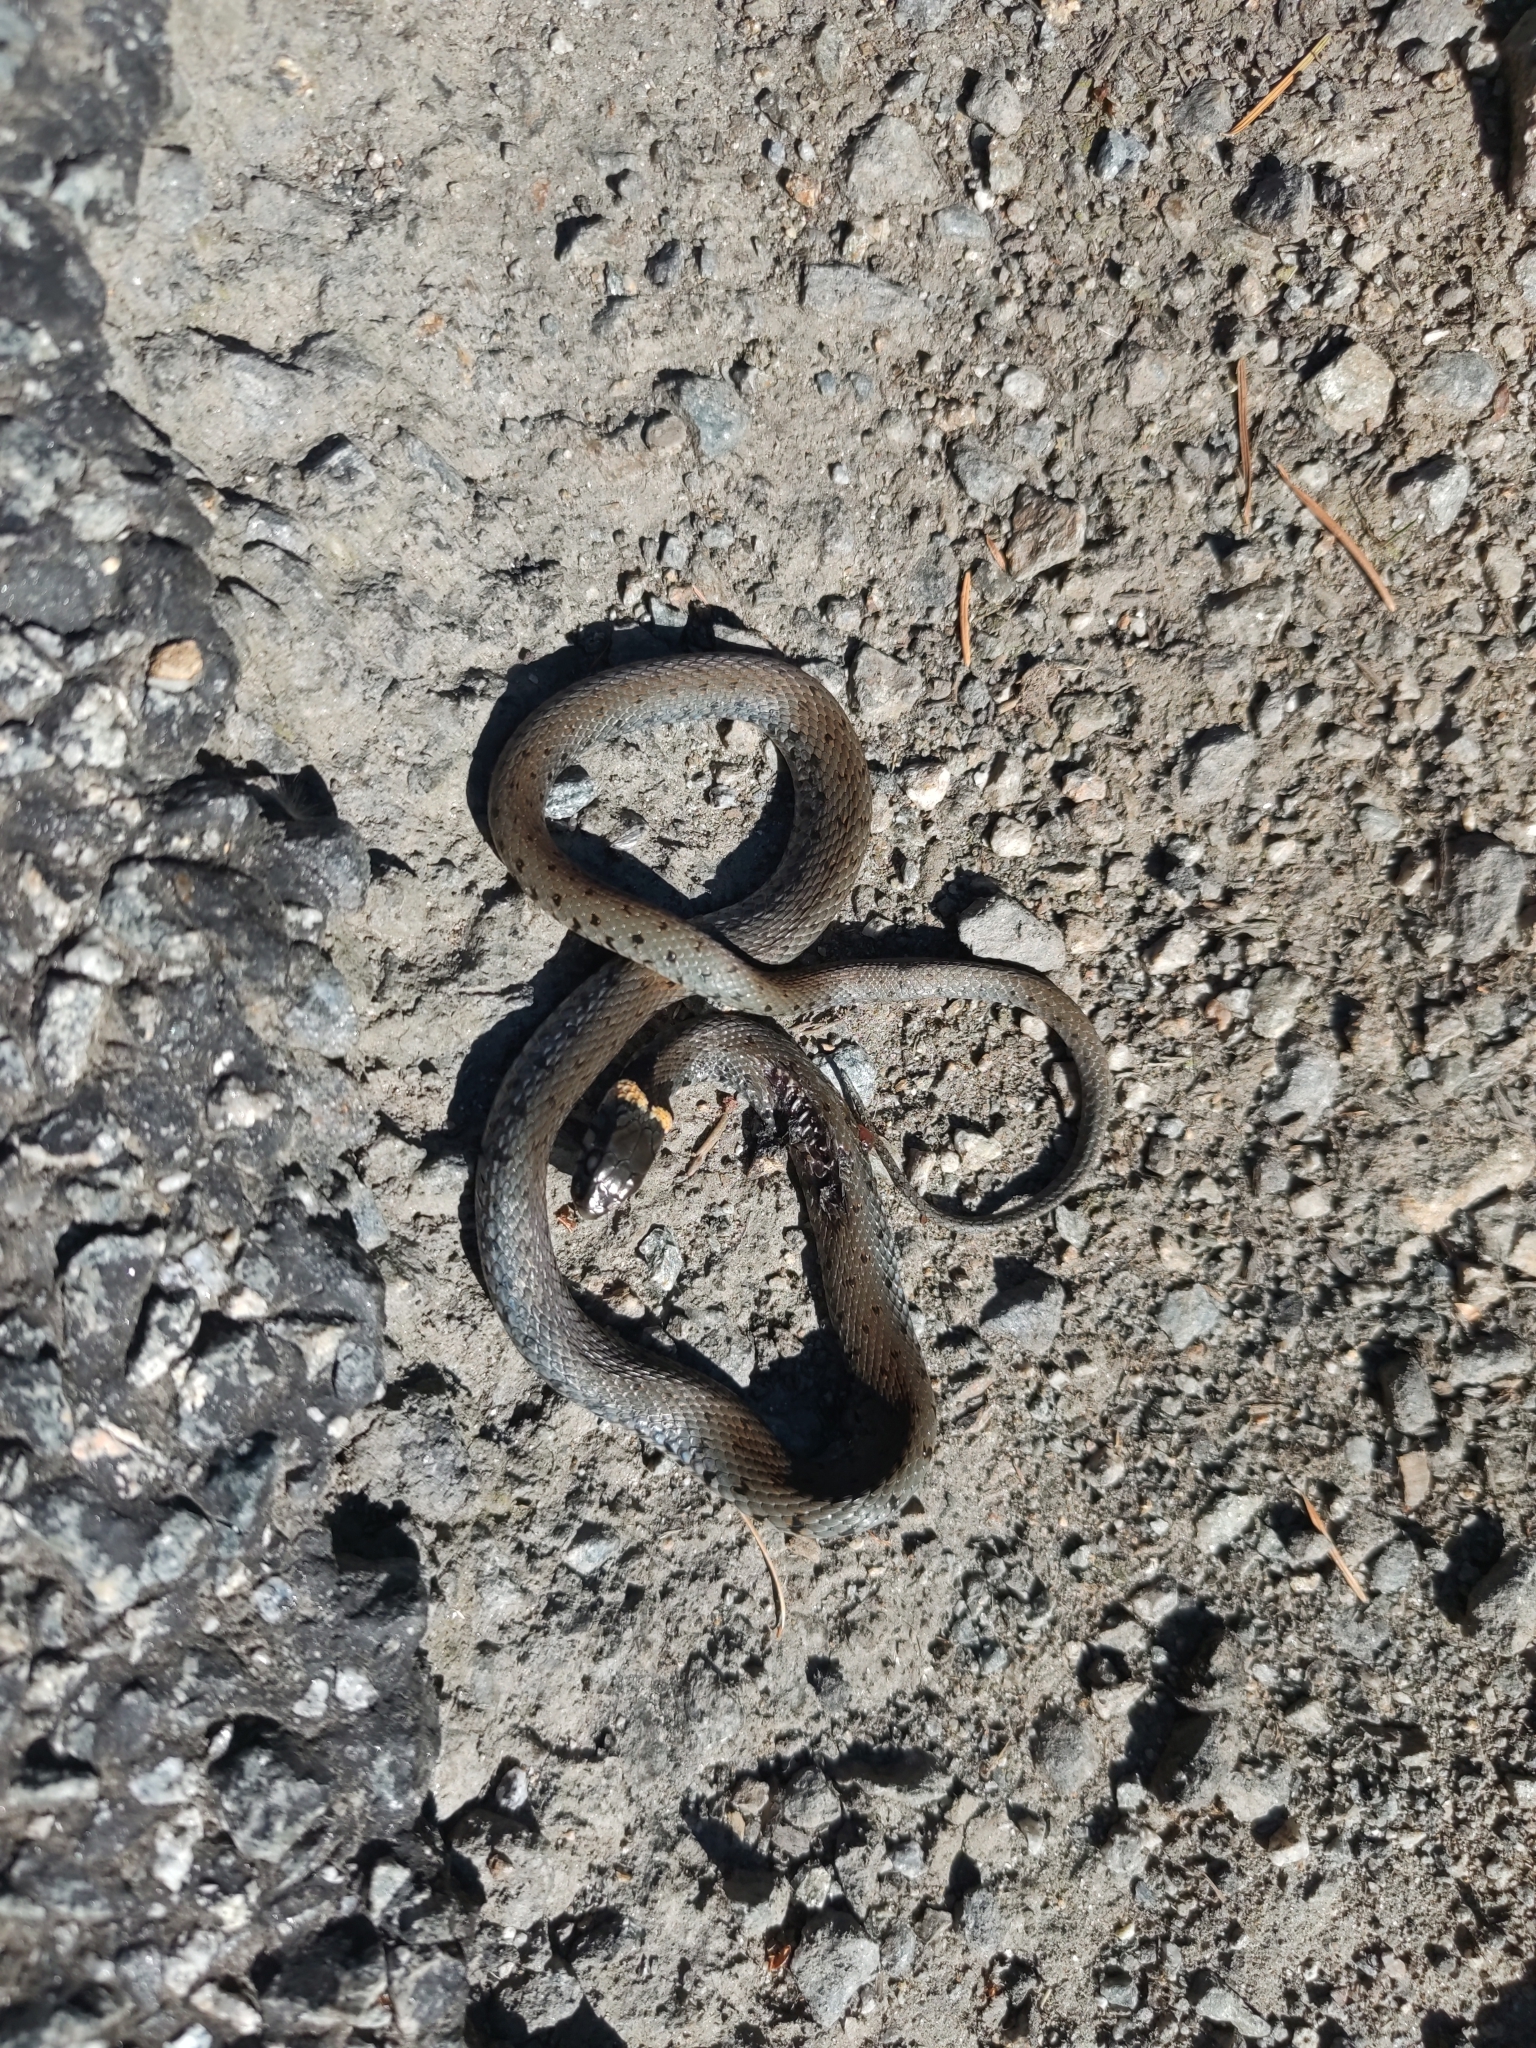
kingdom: Animalia
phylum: Chordata
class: Squamata
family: Colubridae
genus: Natrix
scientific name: Natrix helvetica
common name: Banded grass snake
